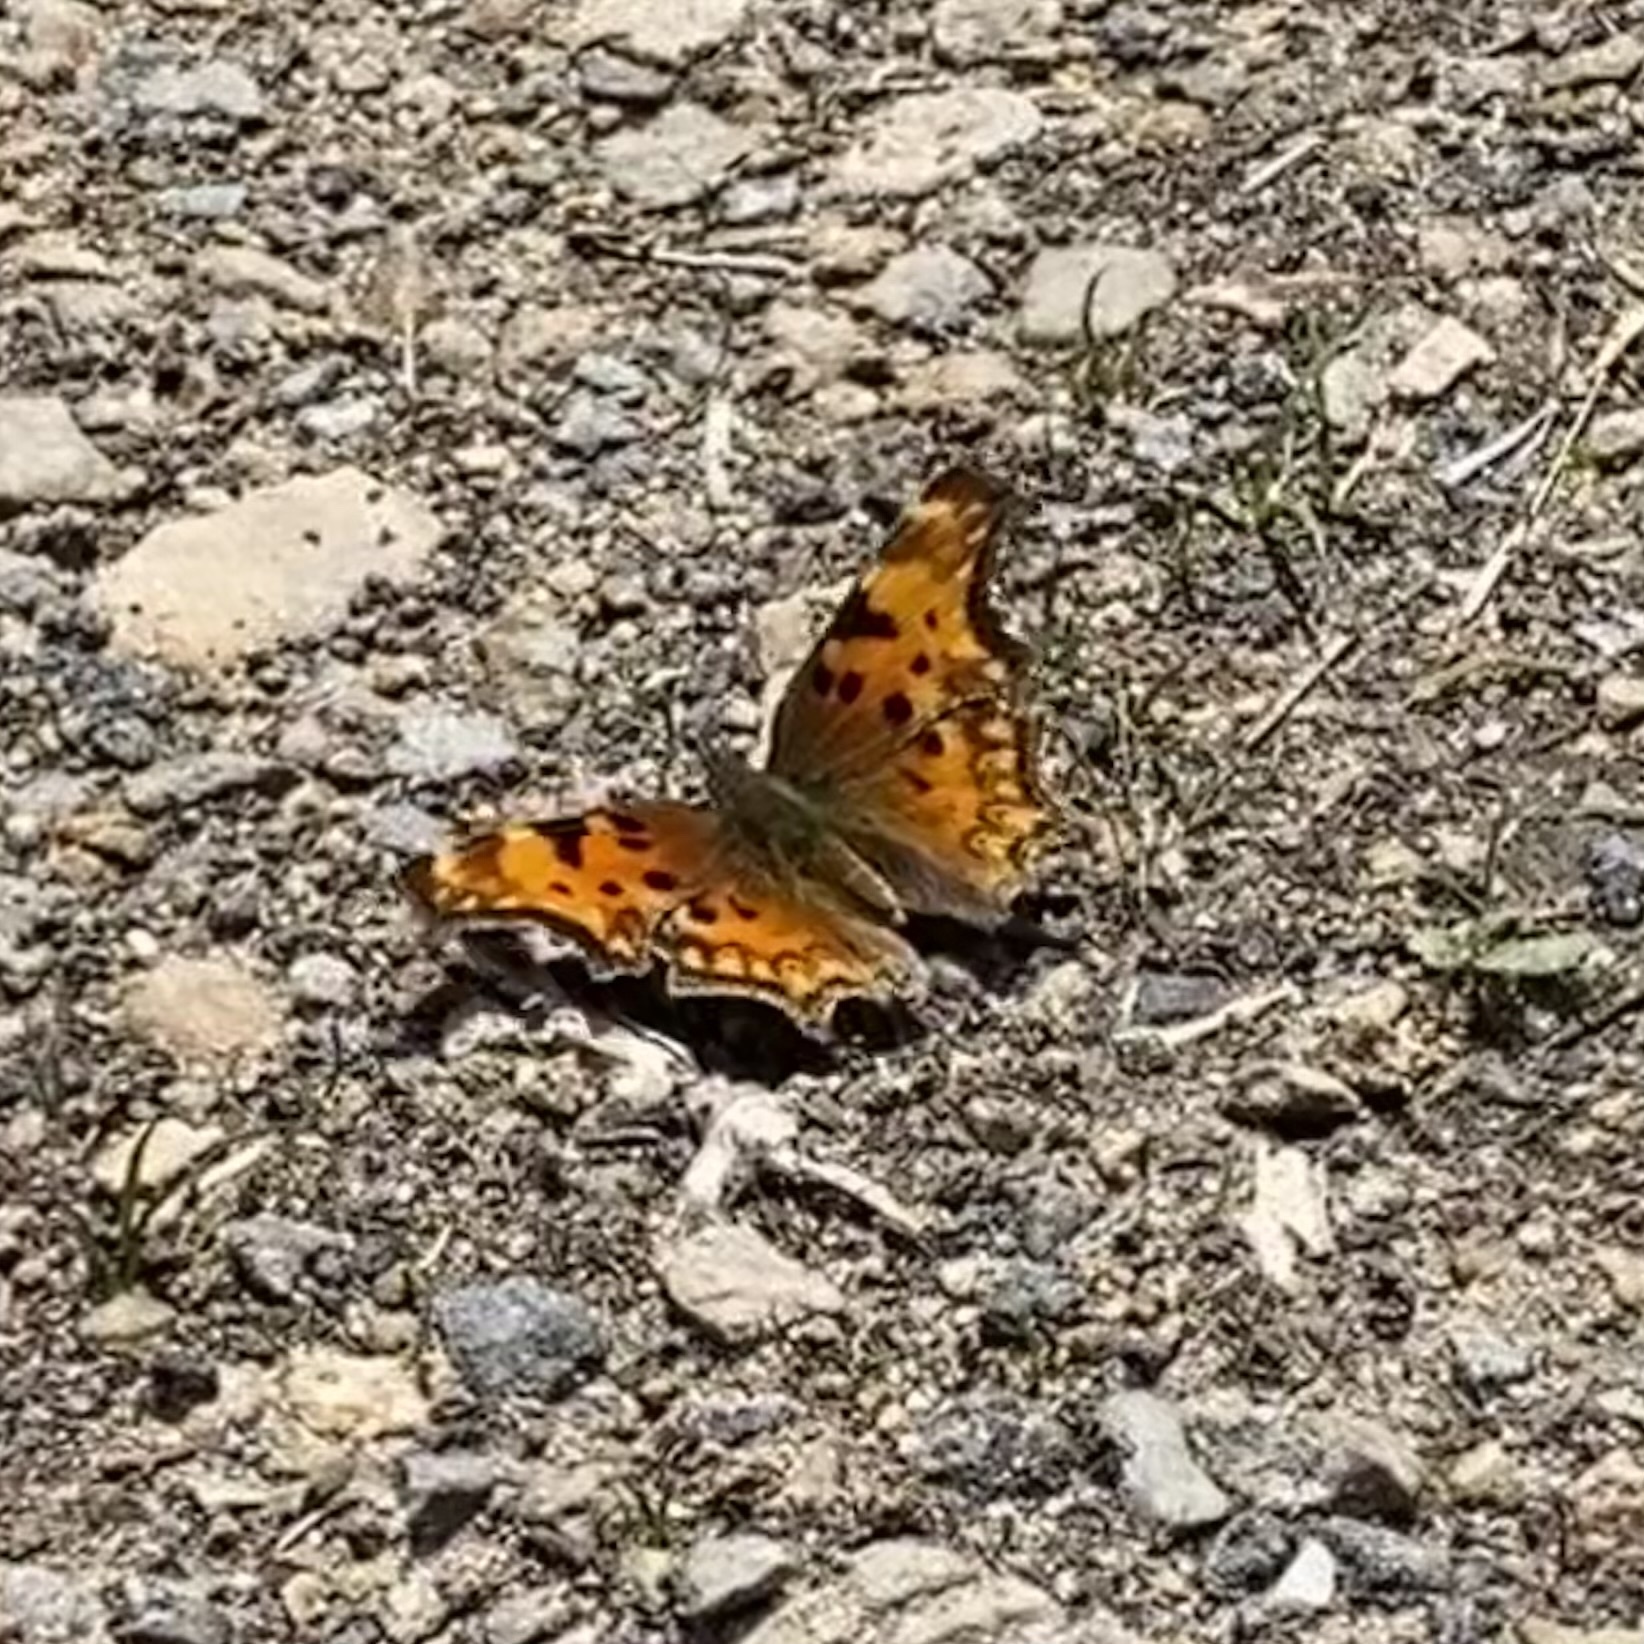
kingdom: Animalia
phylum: Arthropoda
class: Insecta
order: Lepidoptera
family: Nymphalidae
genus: Polygonia
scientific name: Polygonia gracilis
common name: Hoary comma
